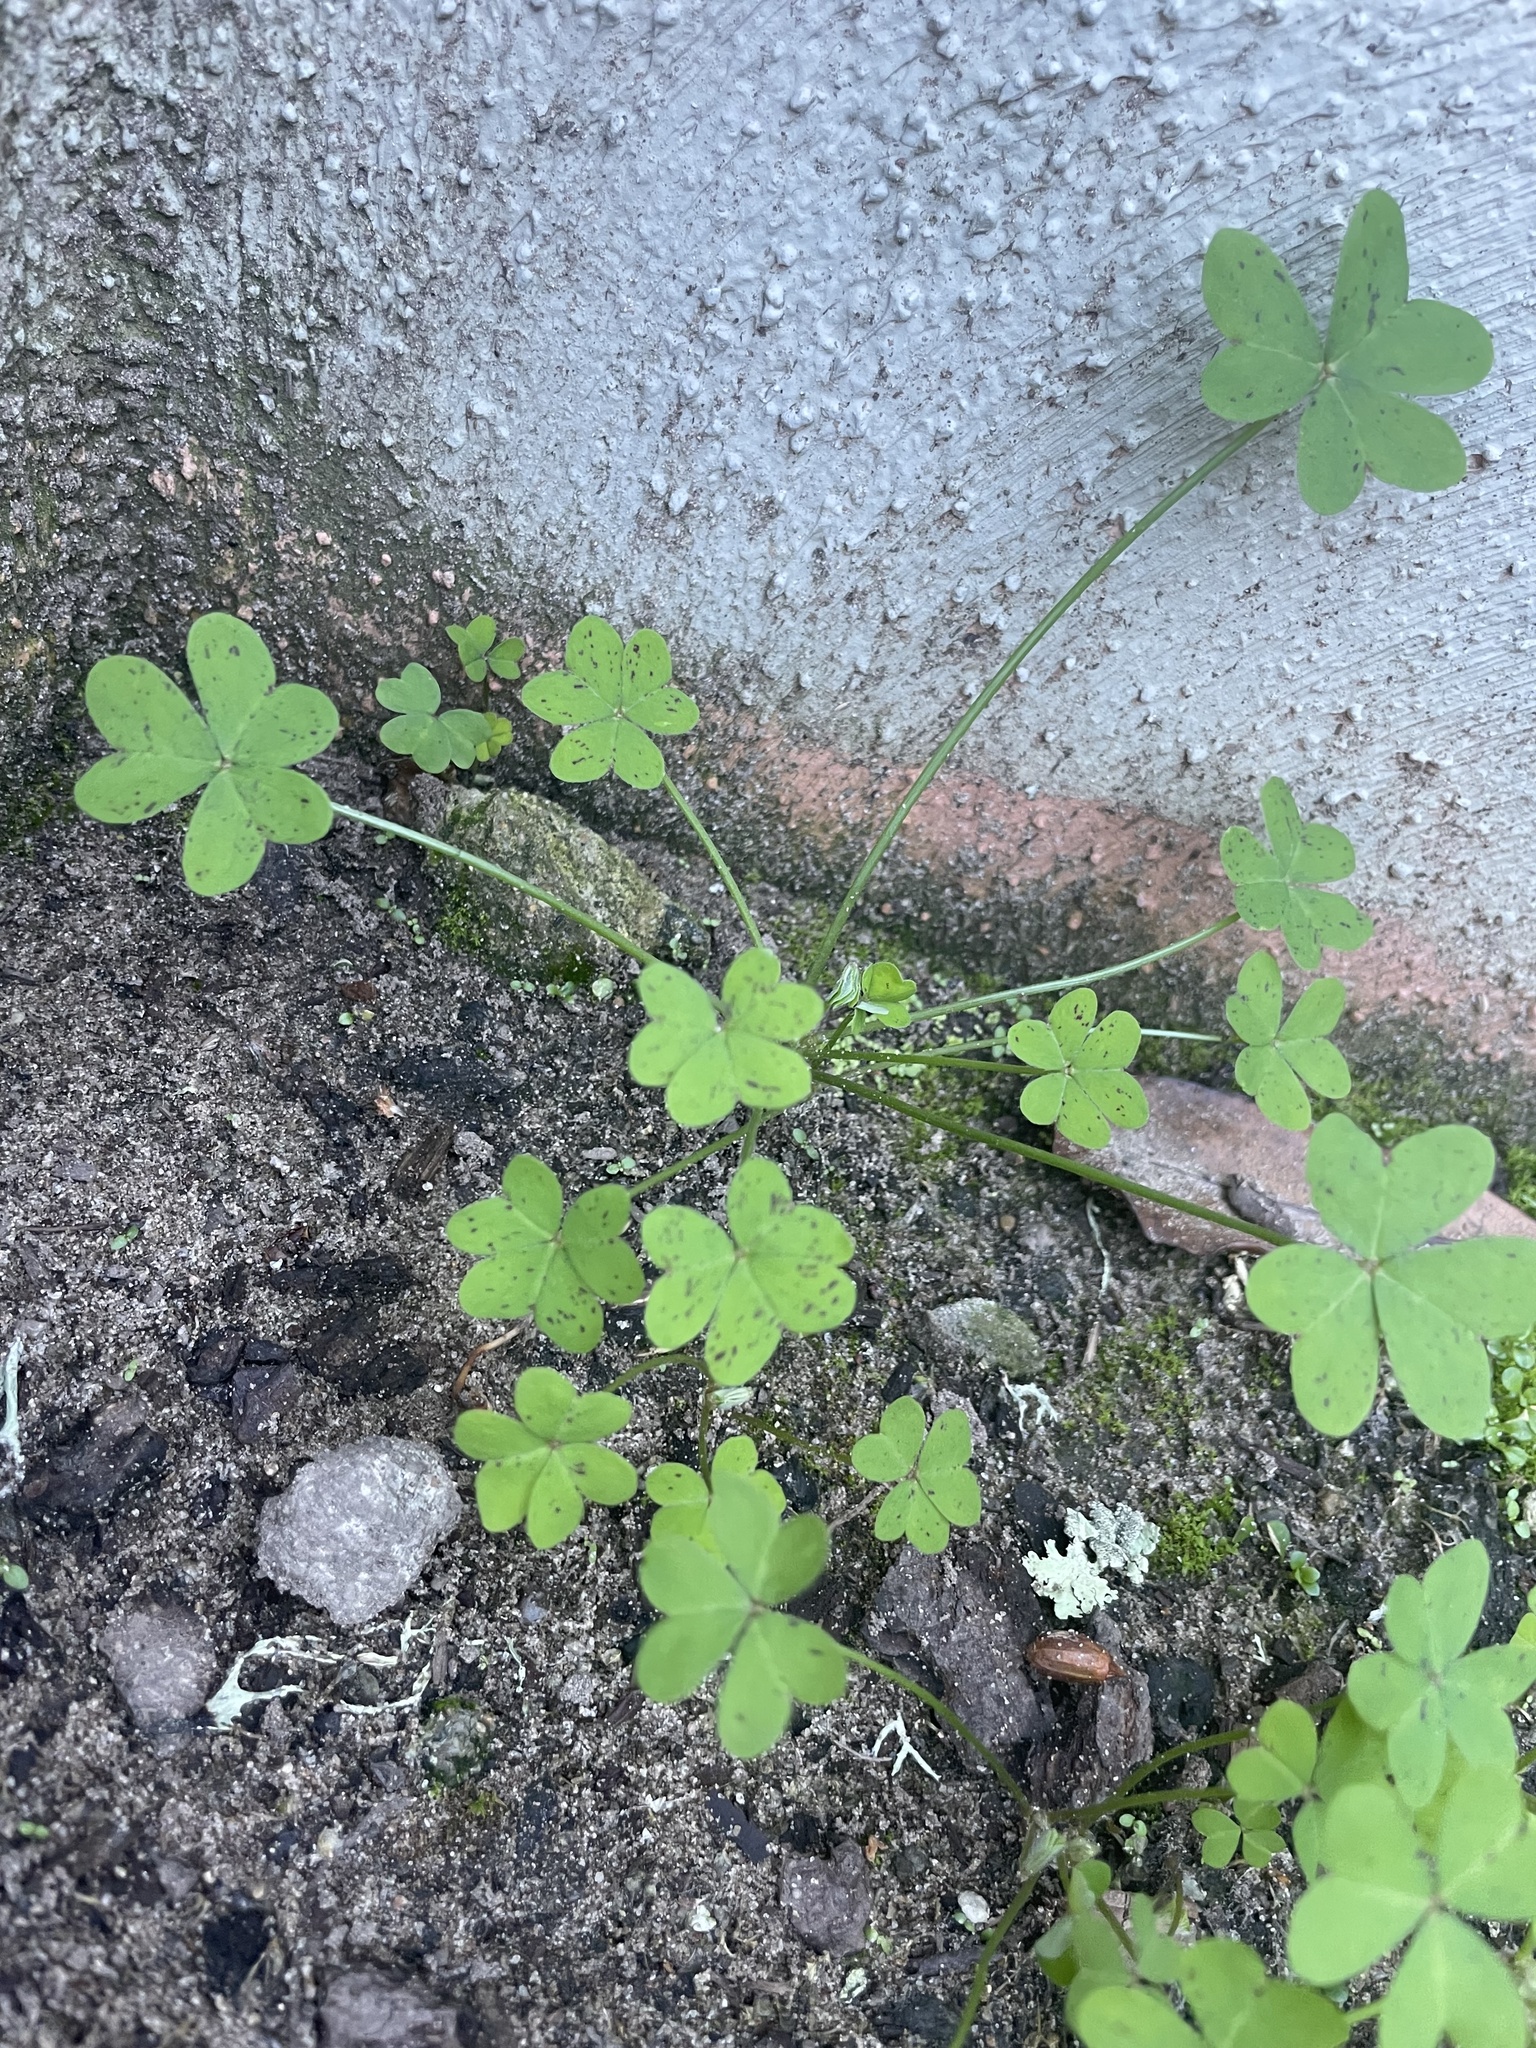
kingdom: Plantae
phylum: Tracheophyta
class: Magnoliopsida
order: Oxalidales
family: Oxalidaceae
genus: Oxalis
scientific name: Oxalis pes-caprae
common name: Bermuda-buttercup
